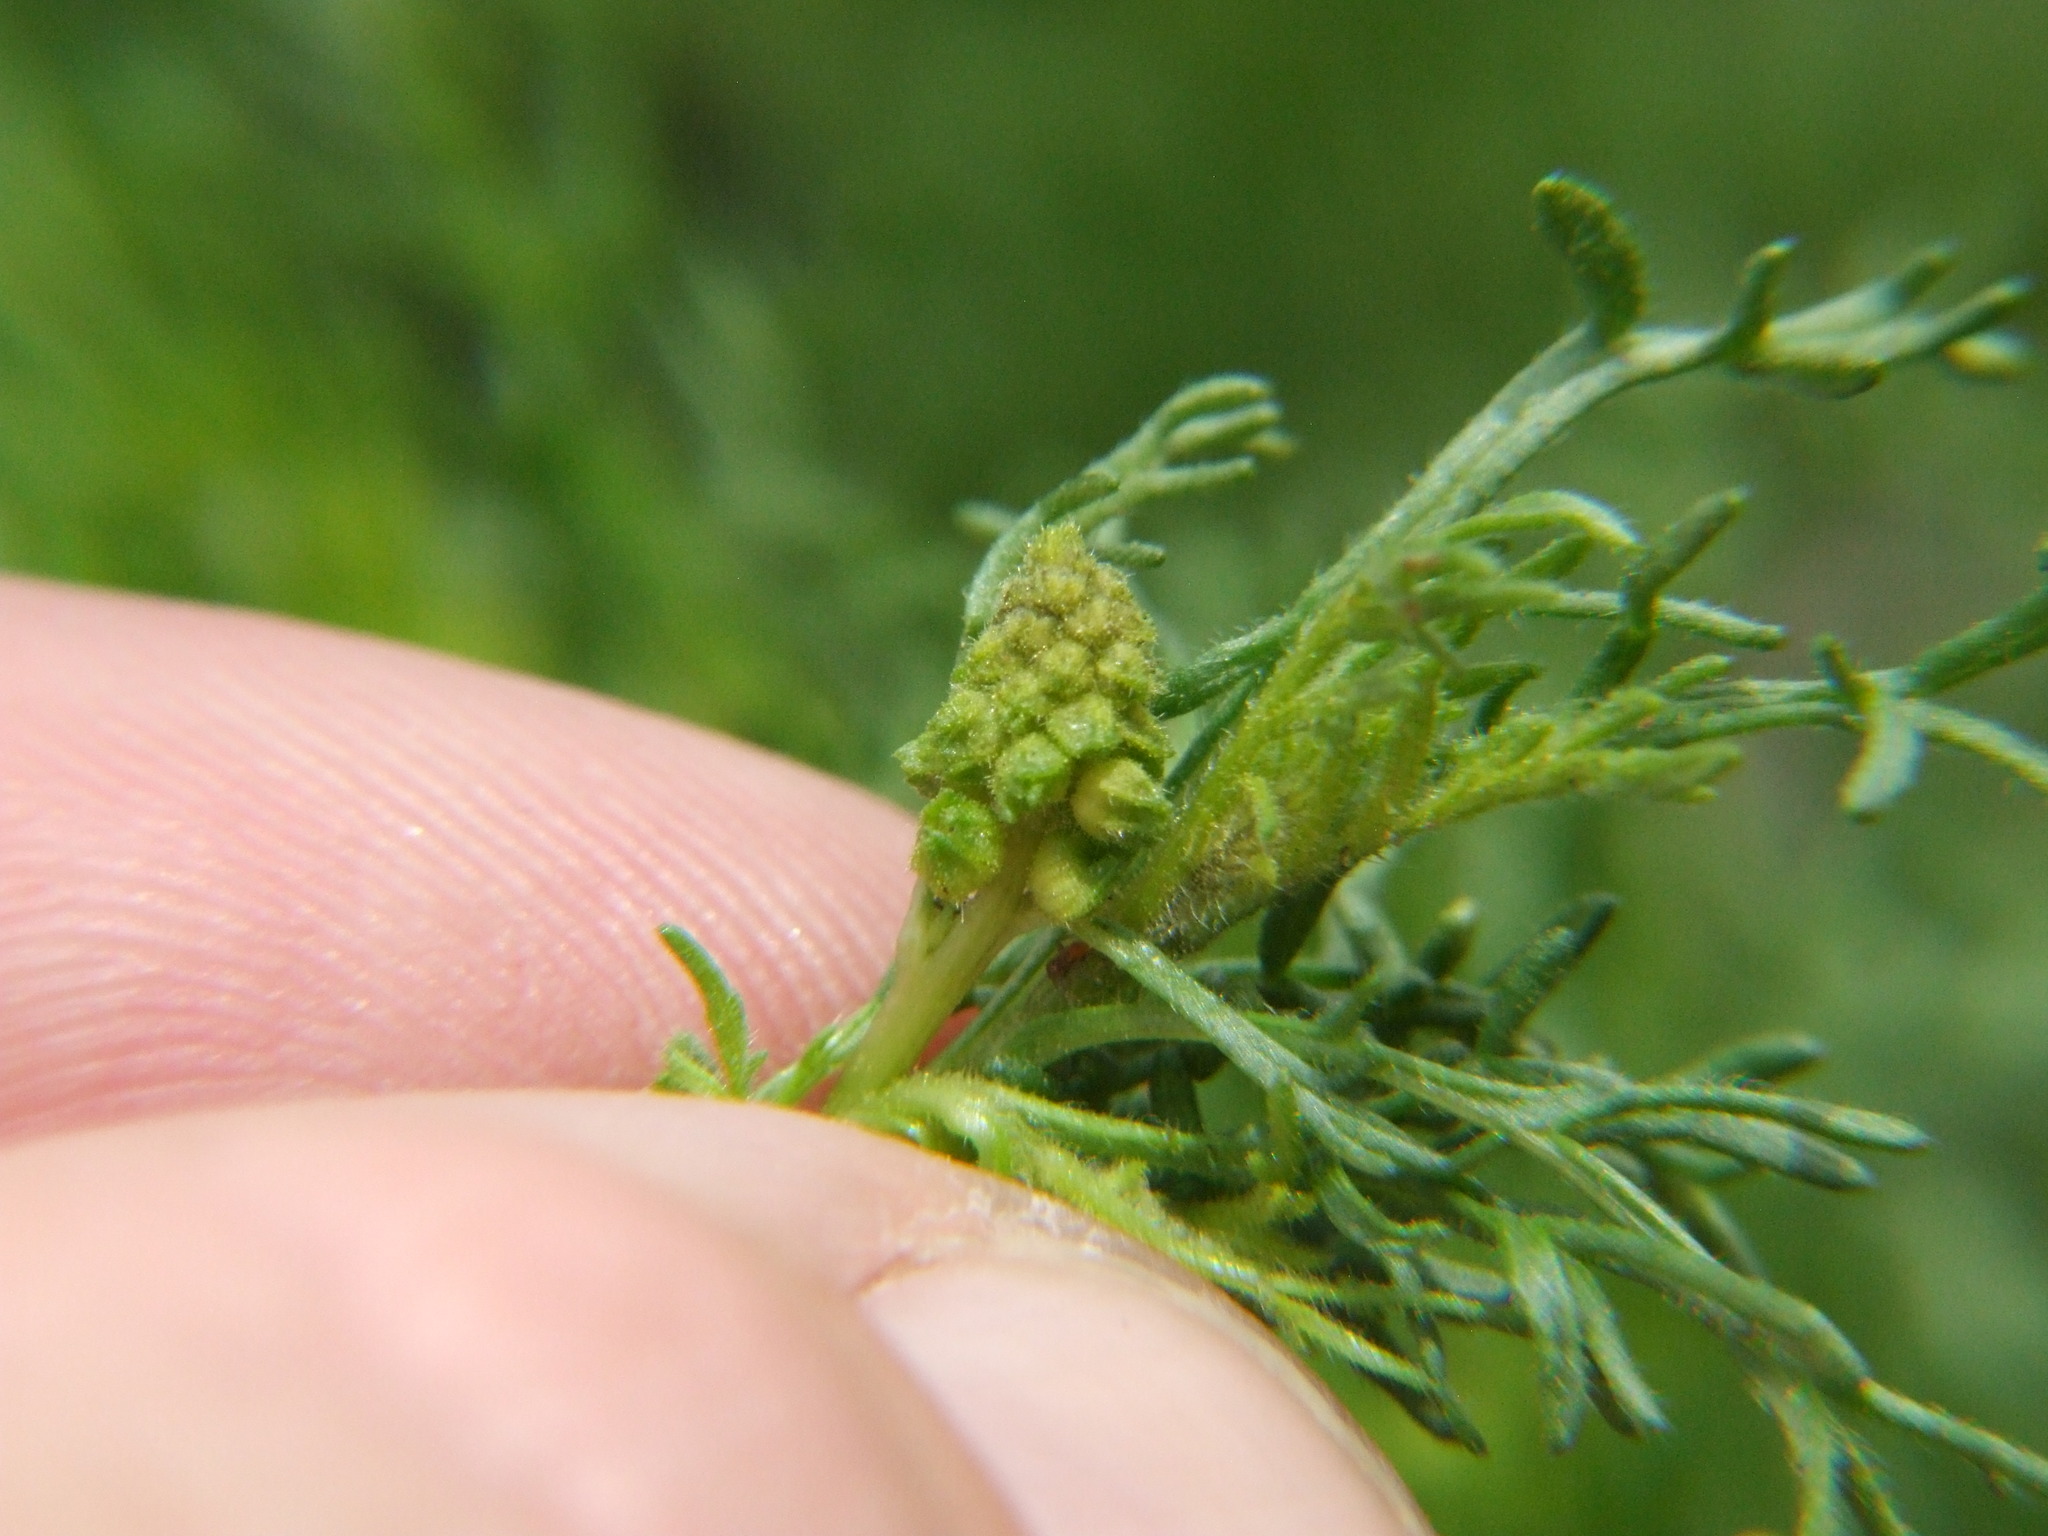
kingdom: Plantae
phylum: Tracheophyta
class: Magnoliopsida
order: Asterales
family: Asteraceae
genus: Ambrosia
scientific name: Ambrosia artemisioides
